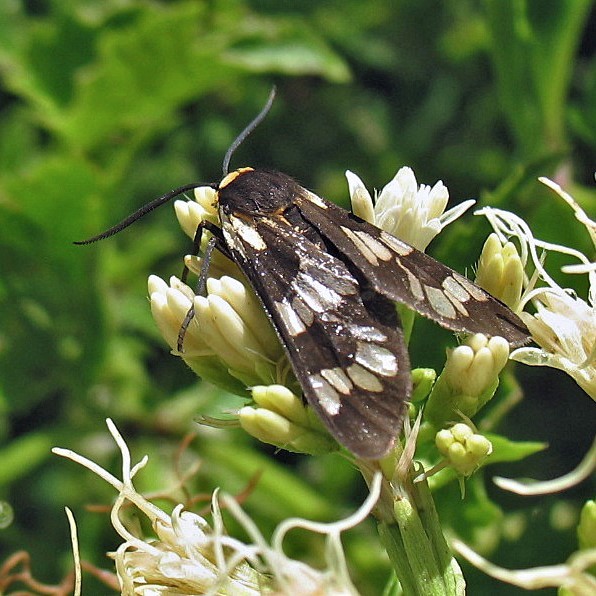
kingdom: Animalia
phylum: Arthropoda
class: Insecta
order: Lepidoptera
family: Erebidae
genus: Eurata
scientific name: Eurata
